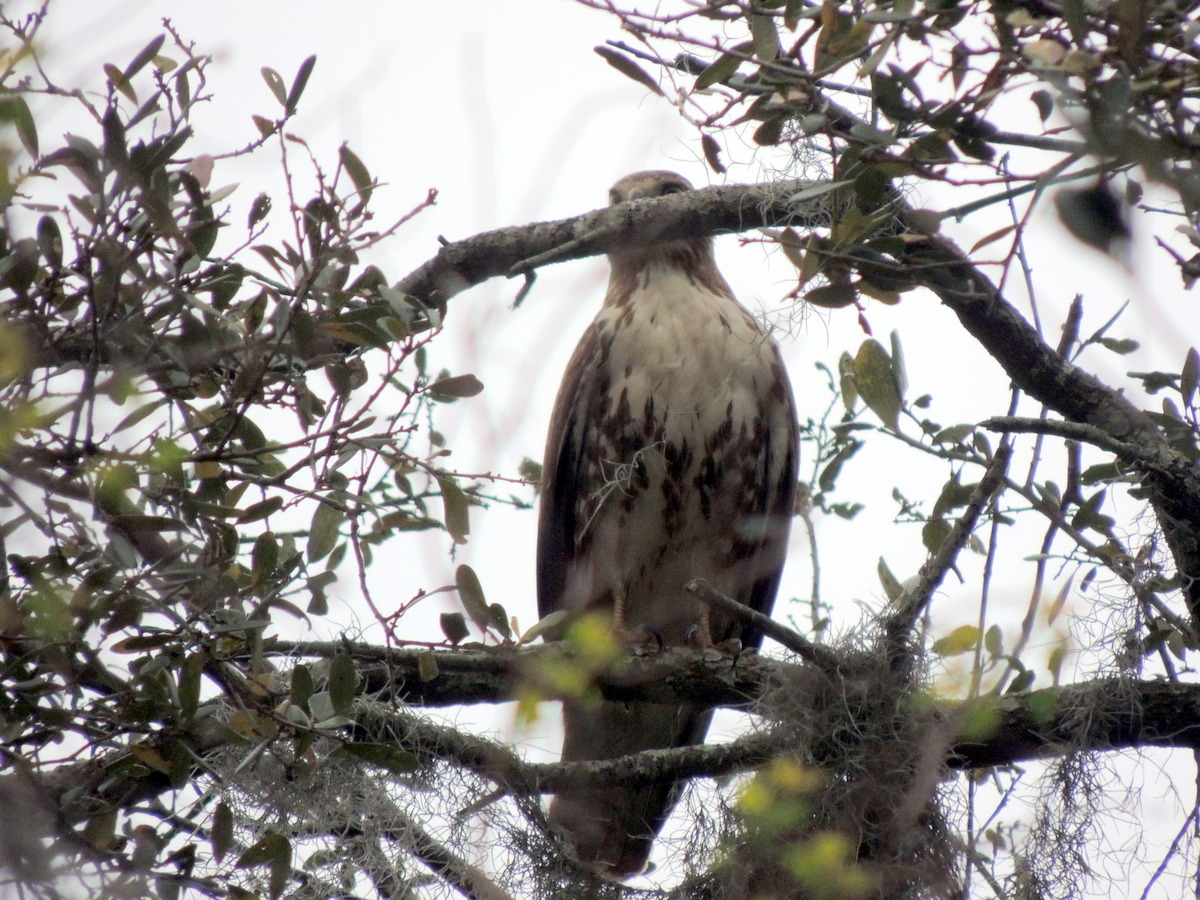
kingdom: Animalia
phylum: Chordata
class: Aves
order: Accipitriformes
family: Accipitridae
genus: Buteo
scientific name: Buteo jamaicensis
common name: Red-tailed hawk
